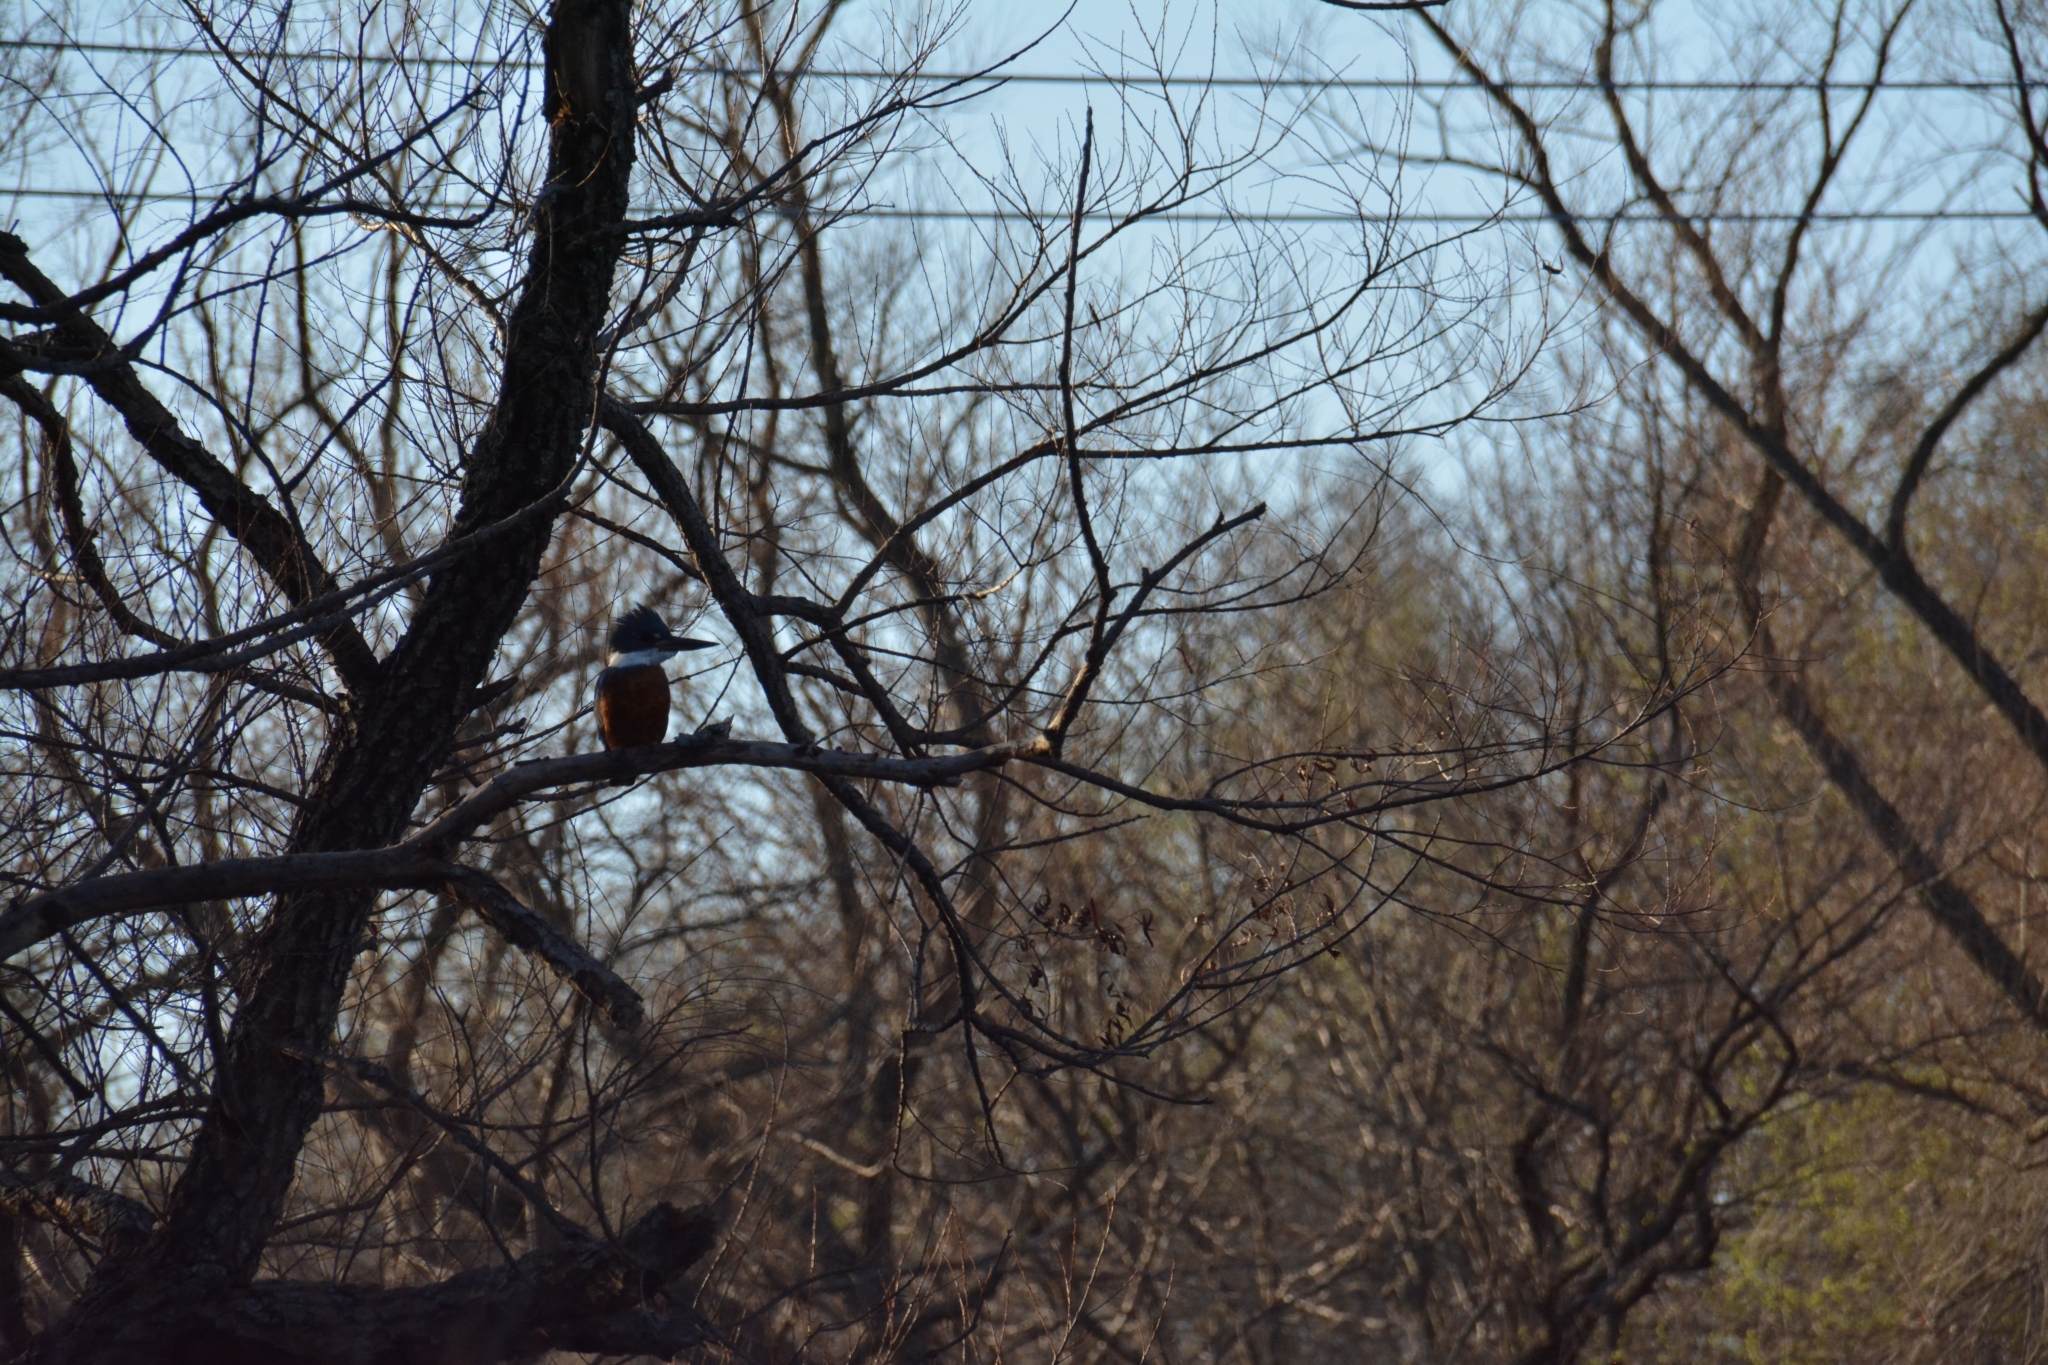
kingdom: Animalia
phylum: Chordata
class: Aves
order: Coraciiformes
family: Alcedinidae
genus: Megaceryle
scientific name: Megaceryle torquata
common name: Ringed kingfisher
